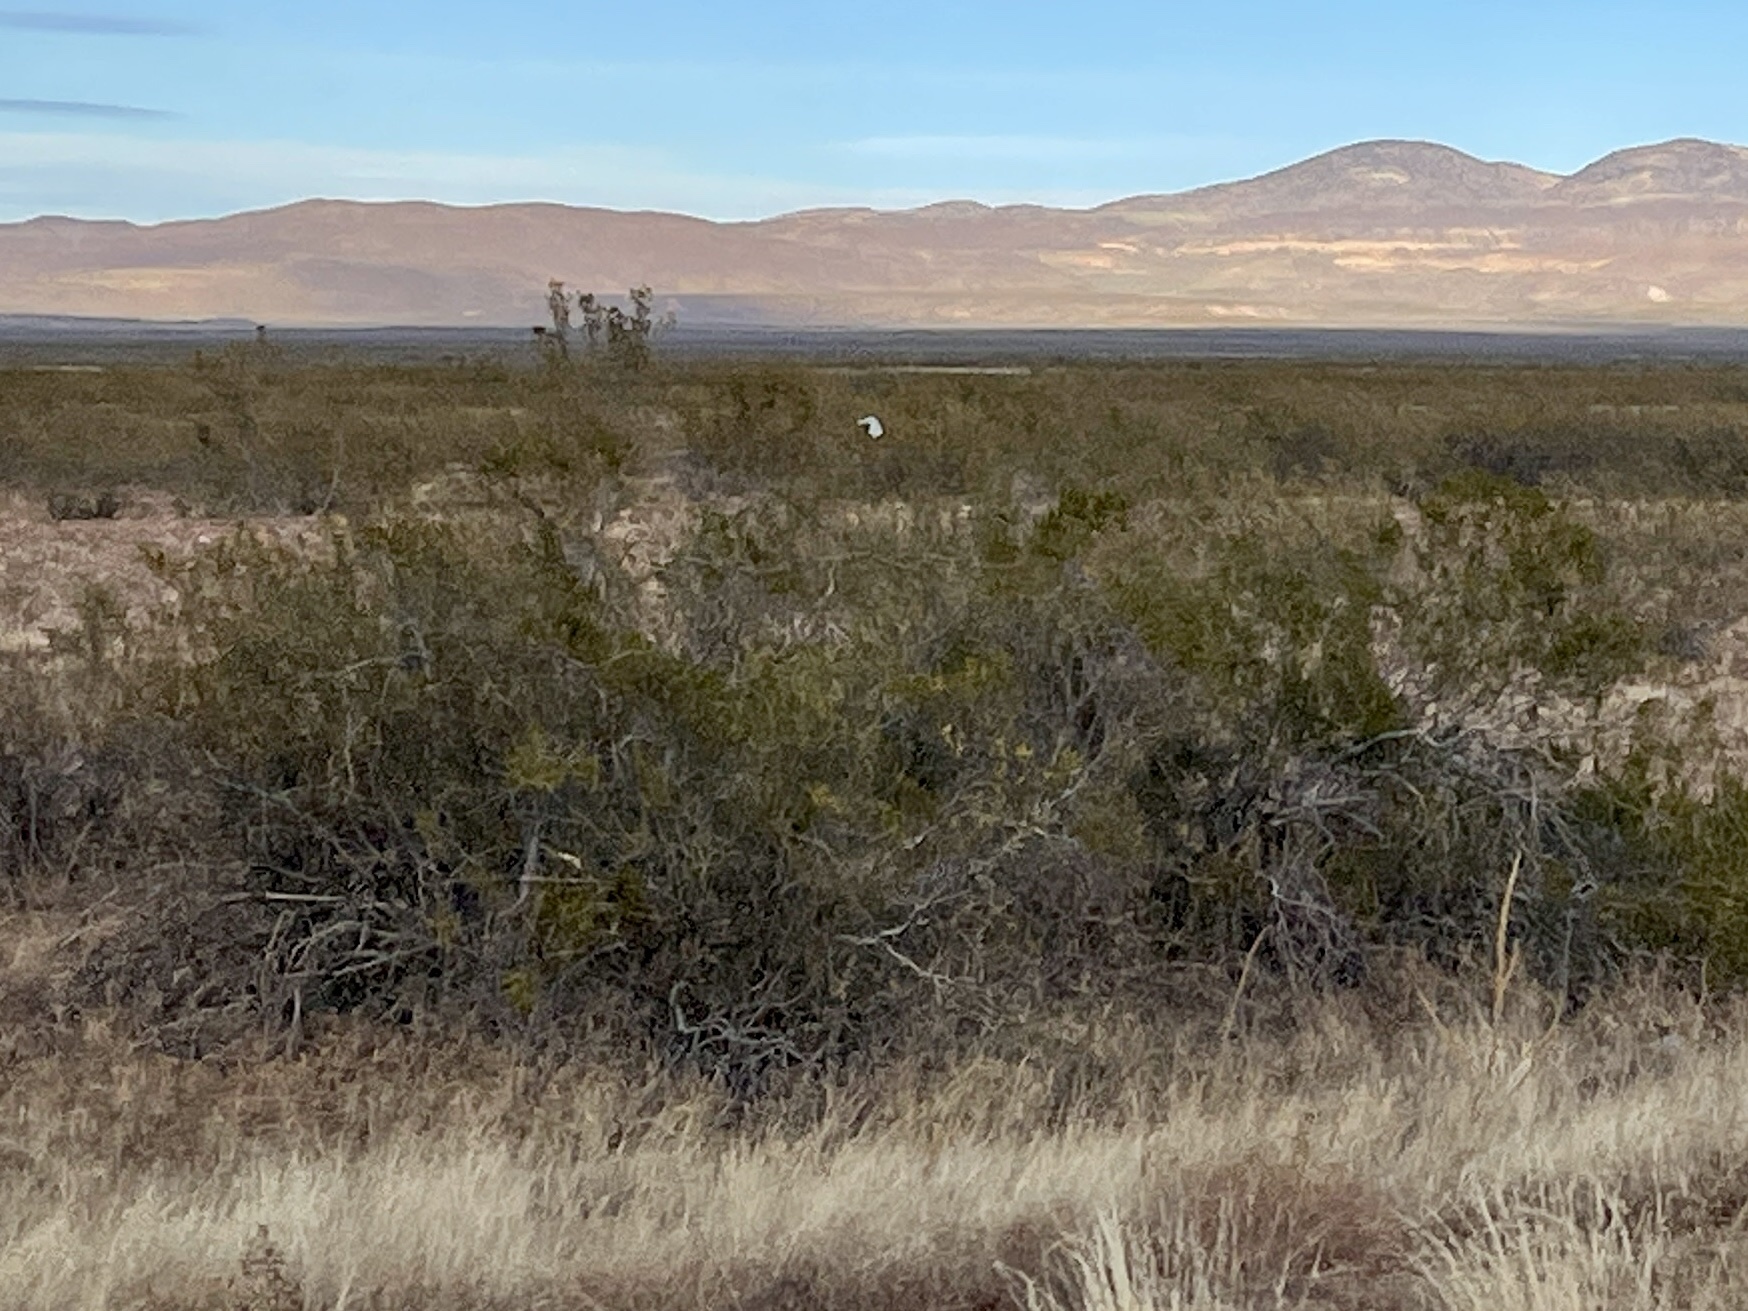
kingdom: Plantae
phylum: Tracheophyta
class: Magnoliopsida
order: Zygophyllales
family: Zygophyllaceae
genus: Larrea
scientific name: Larrea tridentata
